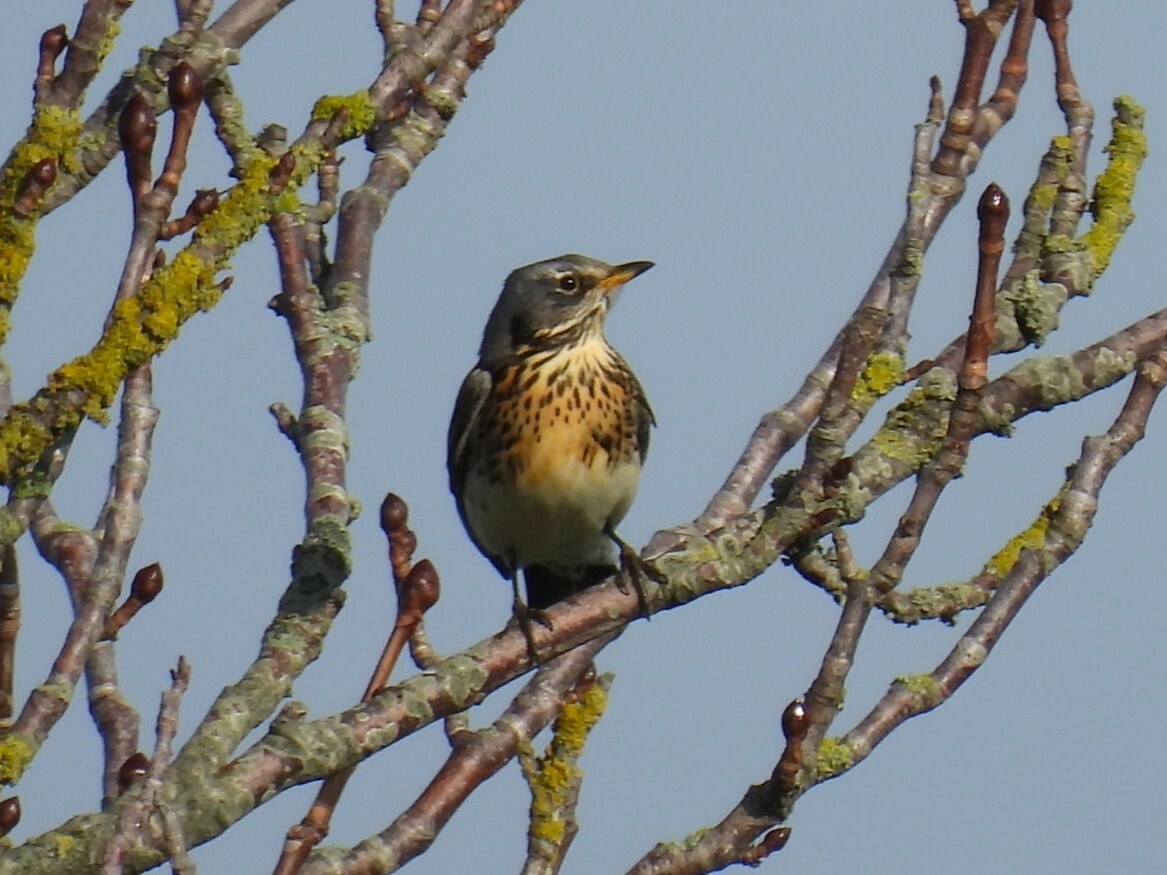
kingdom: Animalia
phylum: Chordata
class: Aves
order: Passeriformes
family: Turdidae
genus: Turdus
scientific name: Turdus pilaris
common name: Fieldfare
